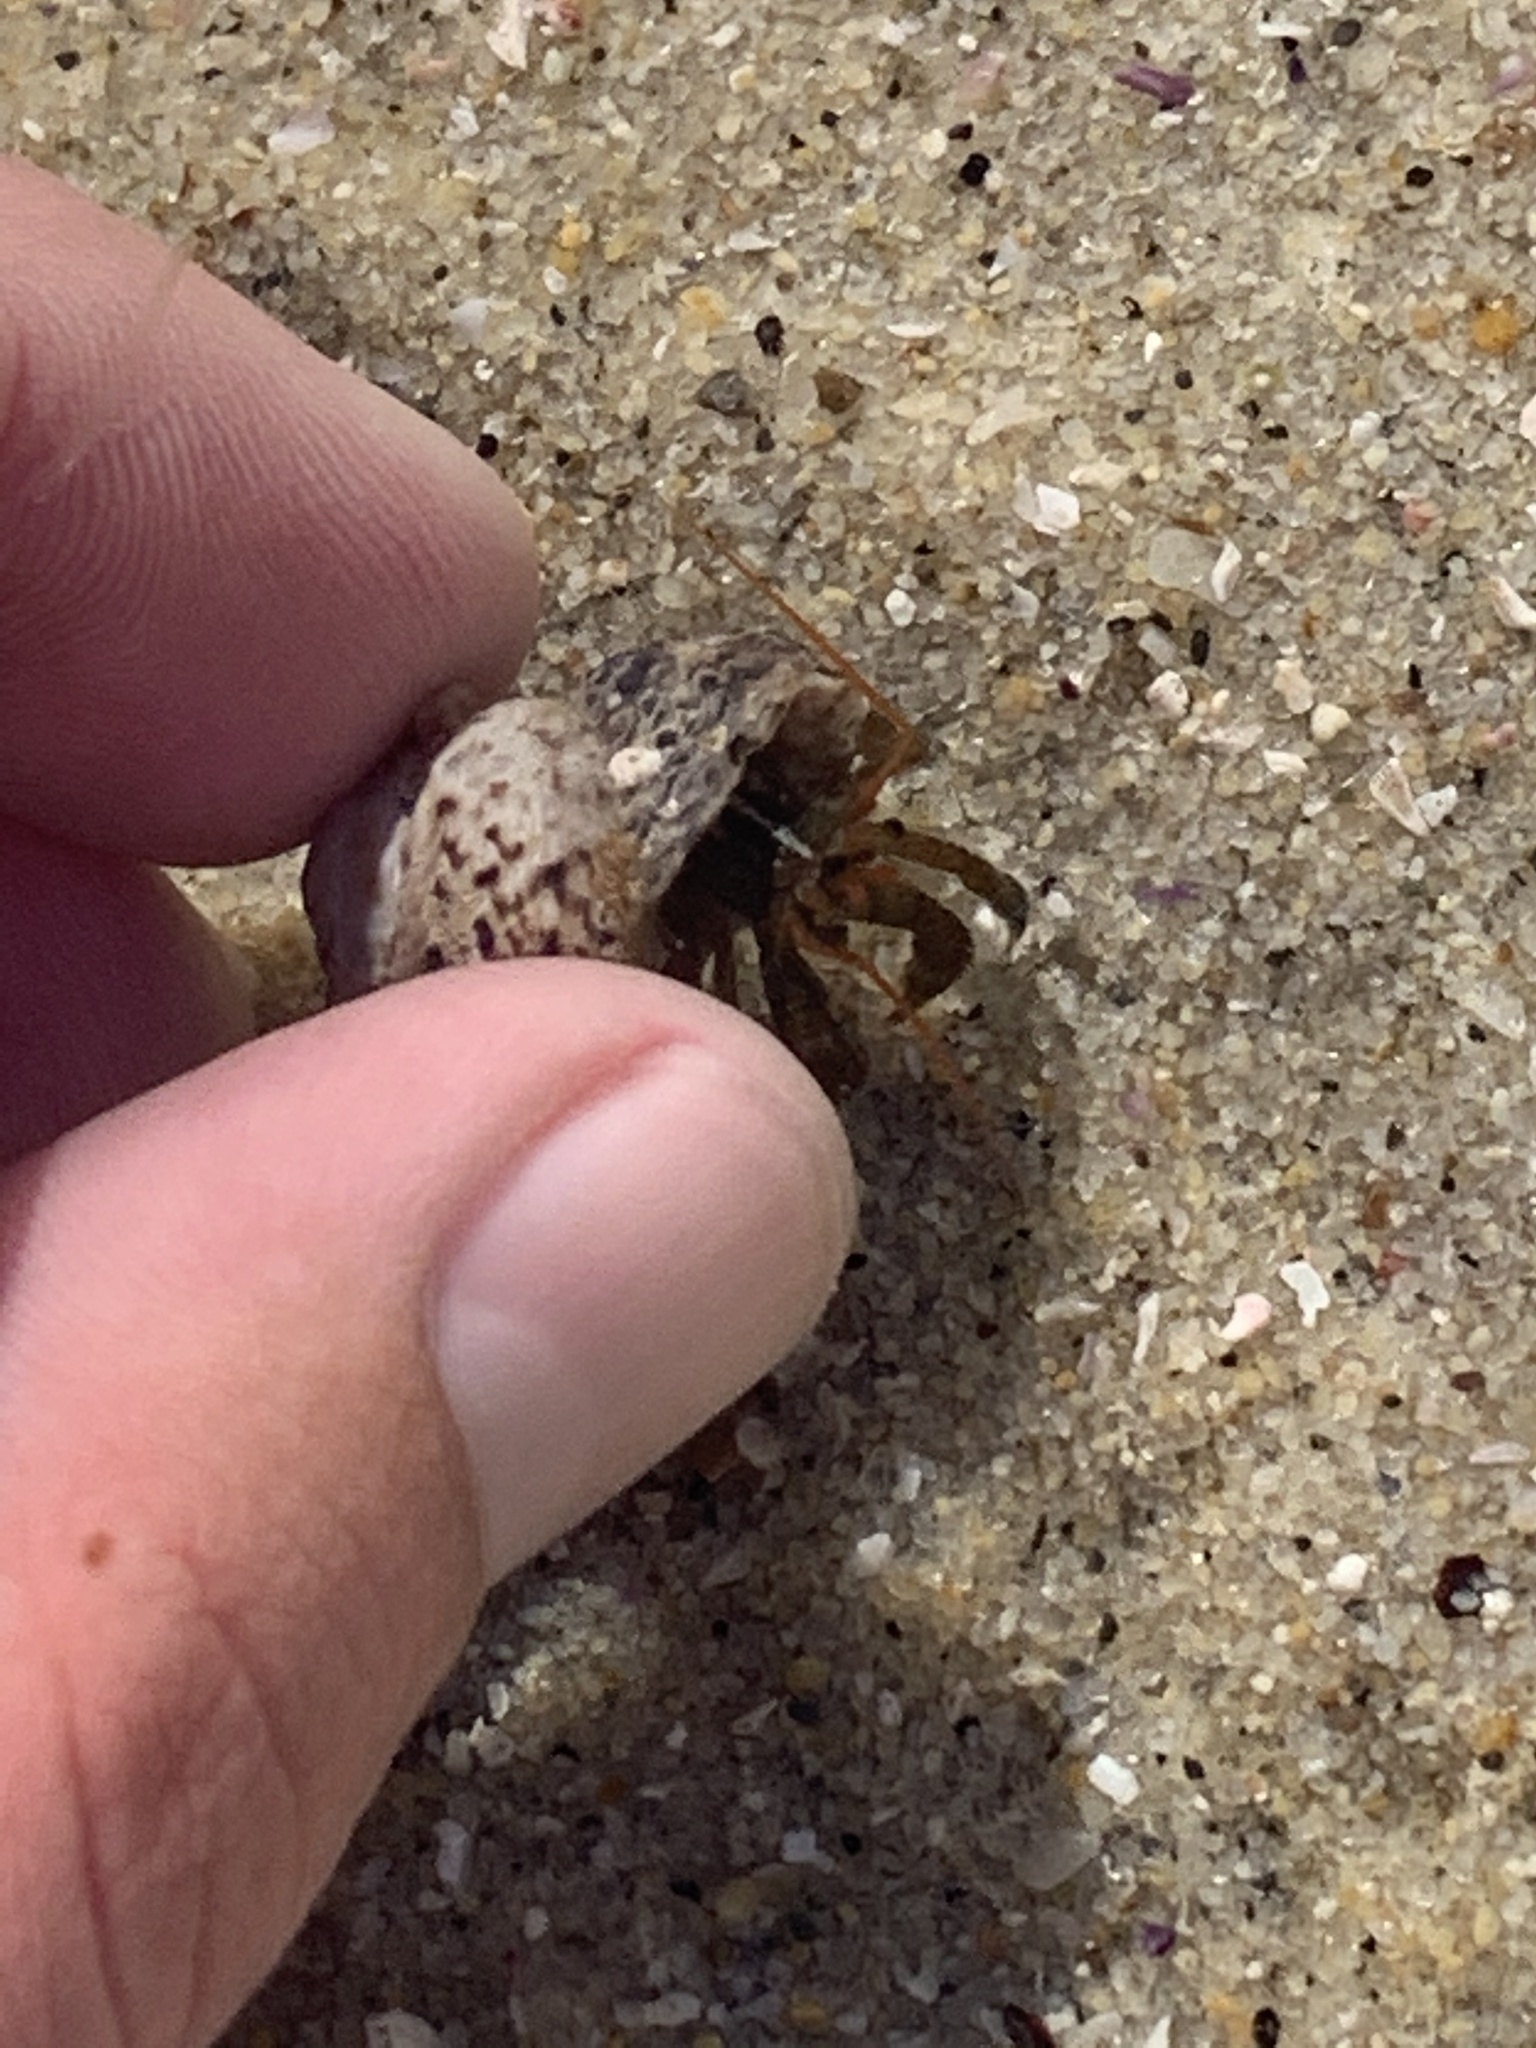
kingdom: Animalia
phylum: Arthropoda
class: Malacostraca
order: Decapoda
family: Paguridae
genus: Pagurus
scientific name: Pagurus samuelis
